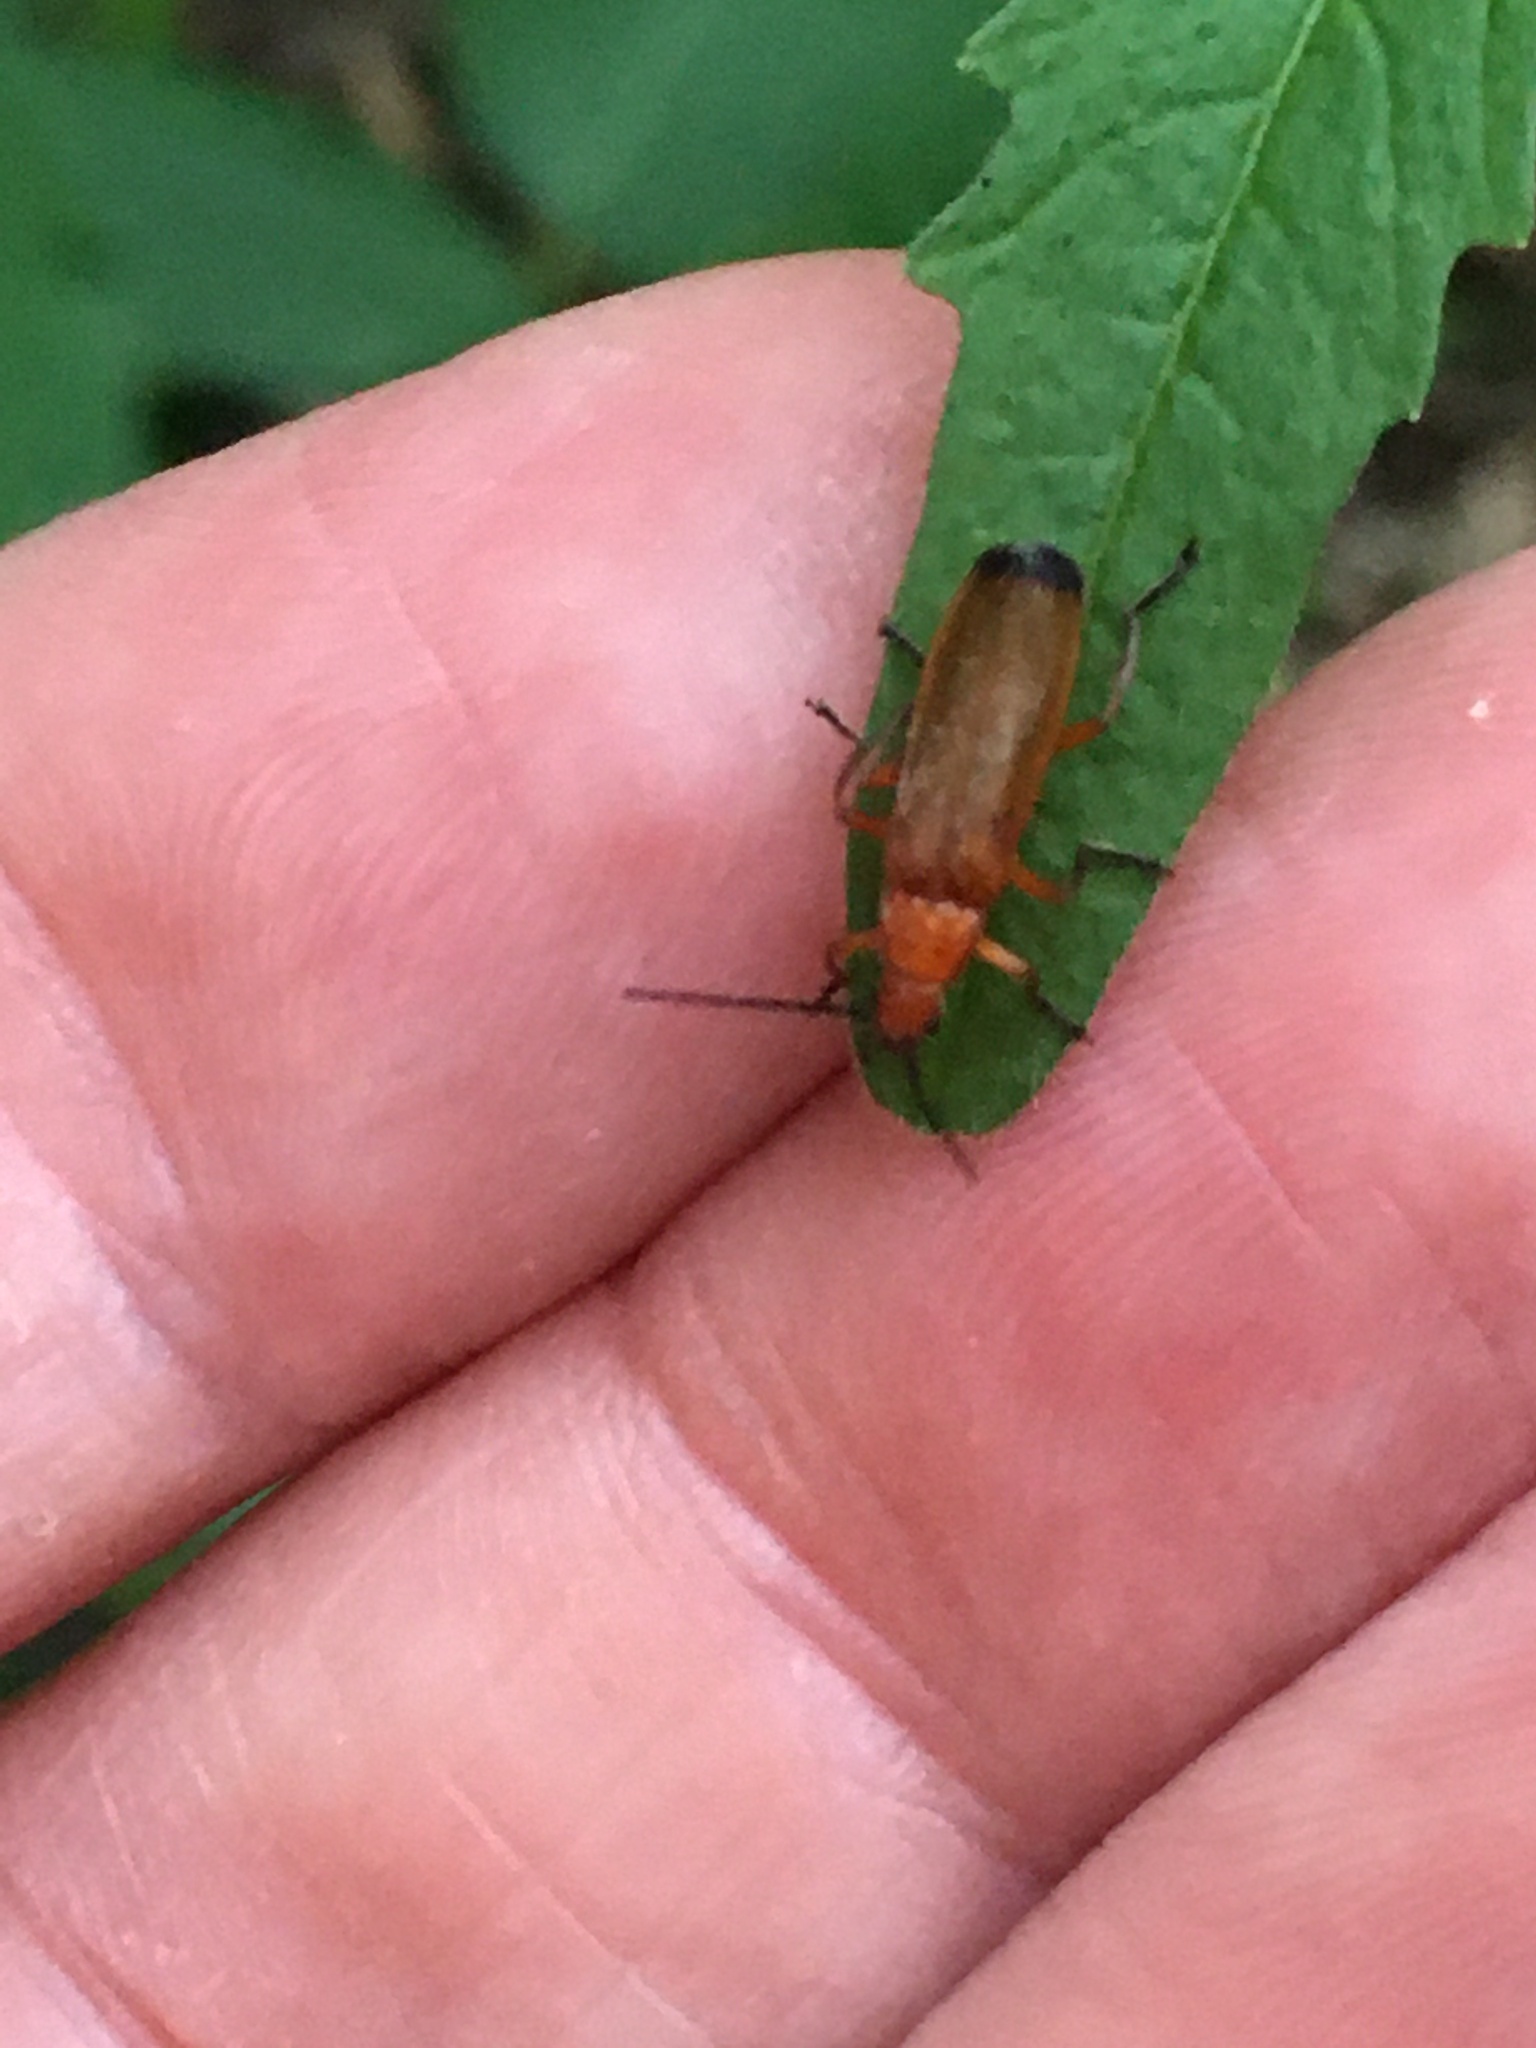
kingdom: Animalia
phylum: Arthropoda
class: Insecta
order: Coleoptera
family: Cantharidae
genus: Rhagonycha
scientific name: Rhagonycha fulva
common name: Common red soldier beetle
